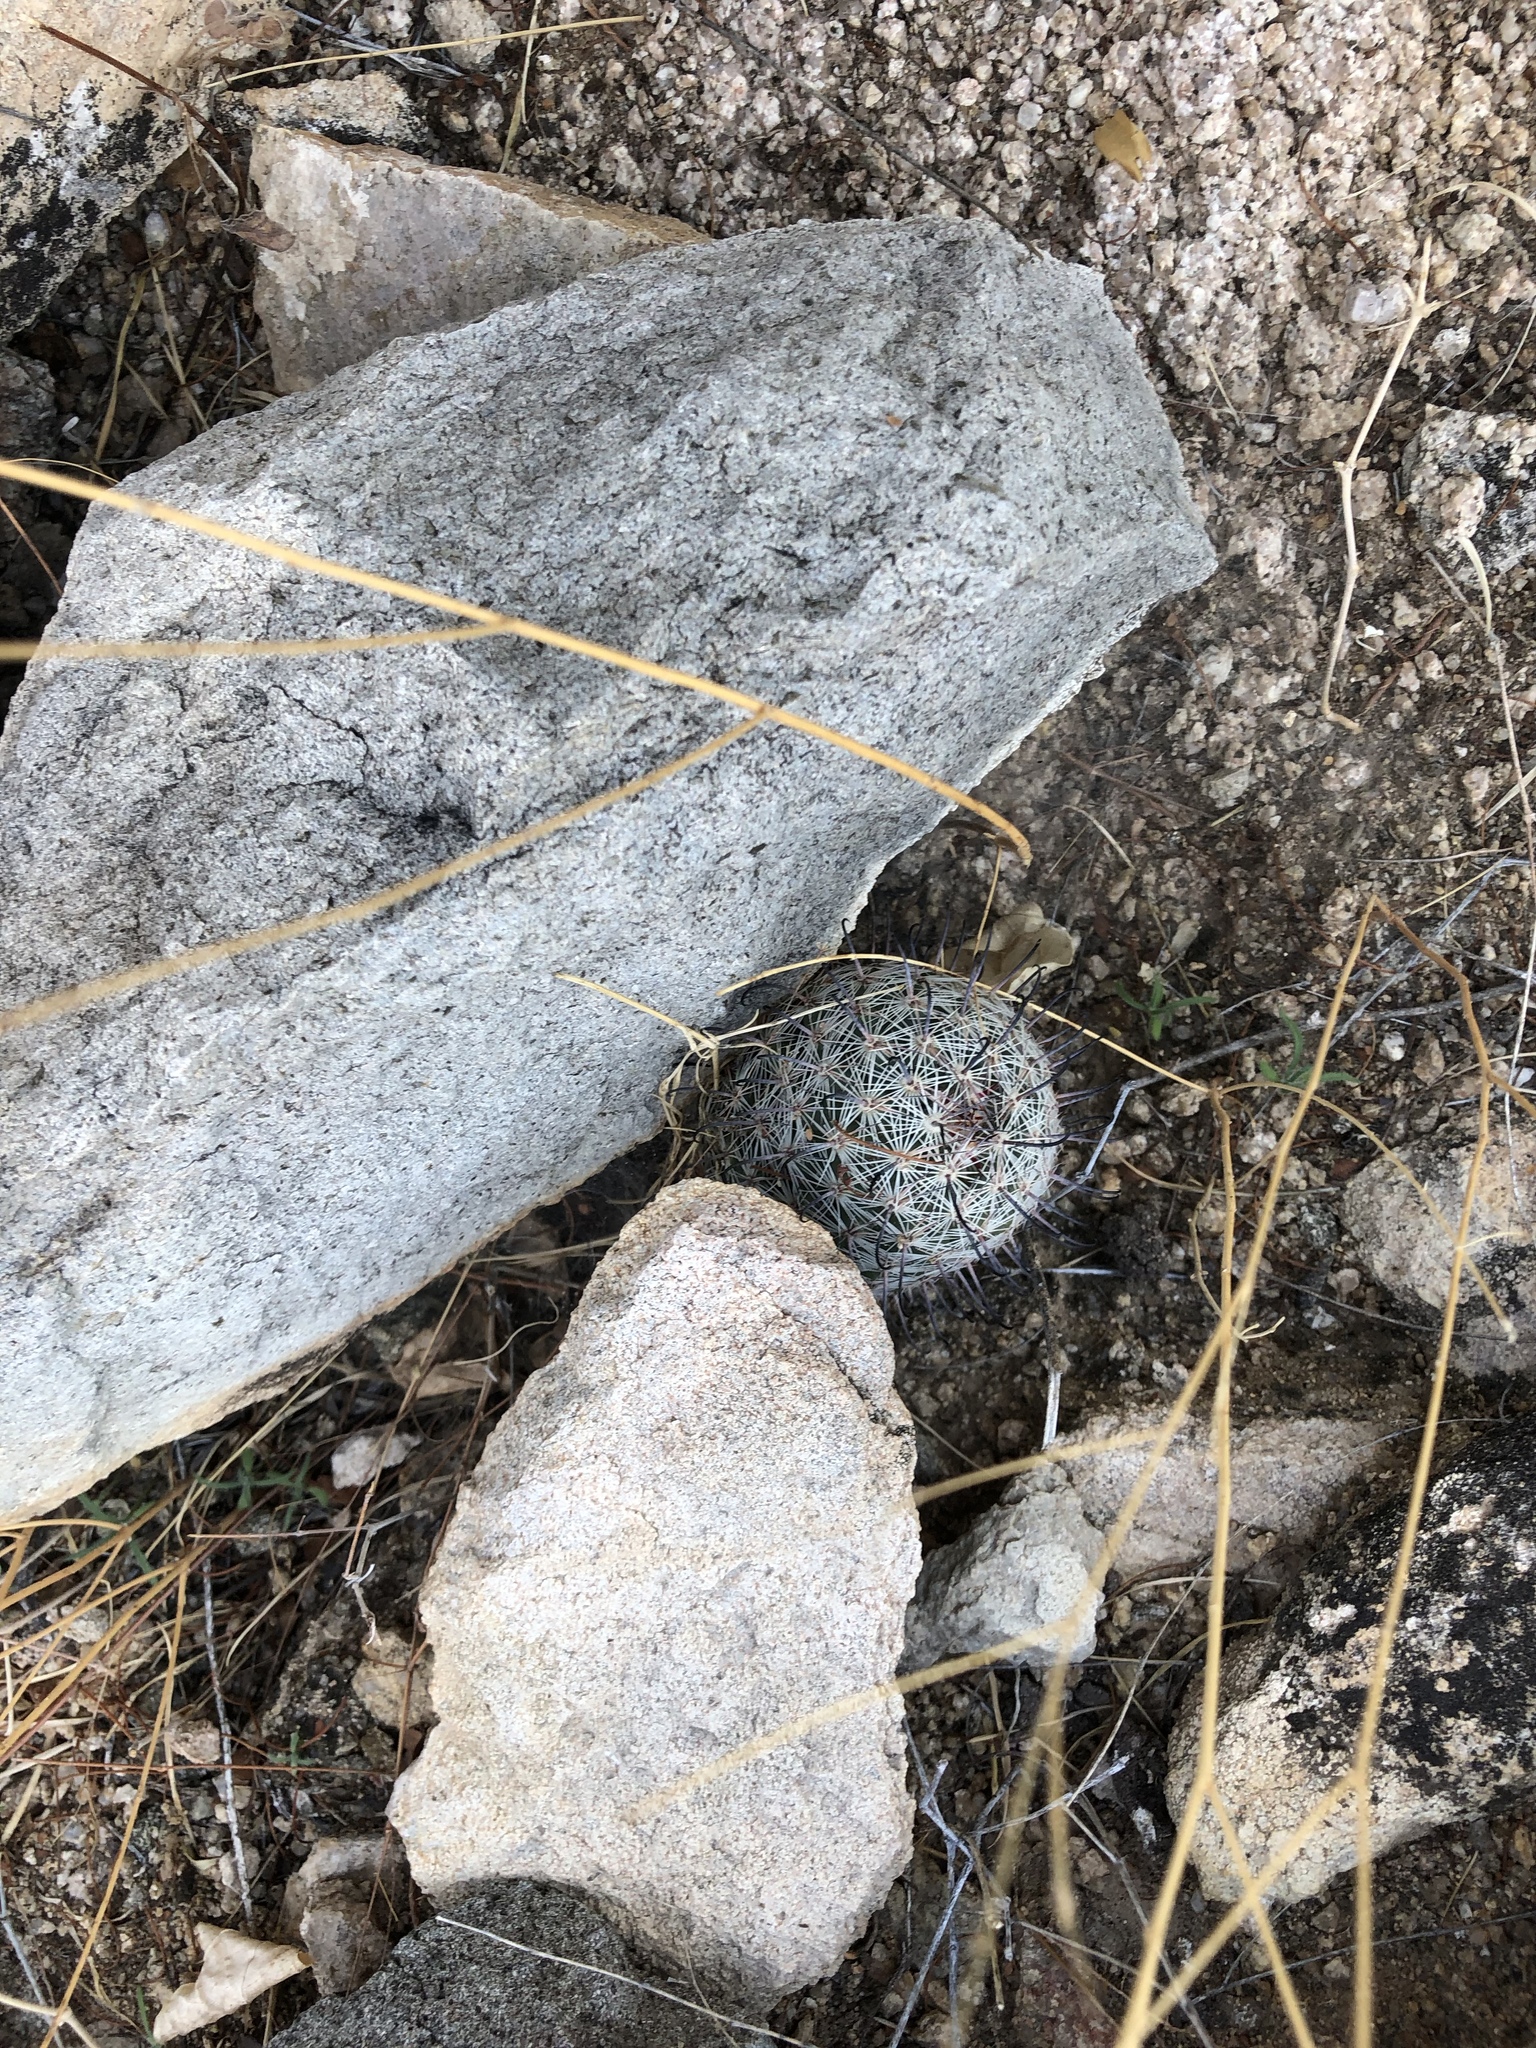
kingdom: Plantae
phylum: Tracheophyta
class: Magnoliopsida
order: Caryophyllales
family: Cactaceae
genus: Cochemiea
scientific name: Cochemiea grahamii
